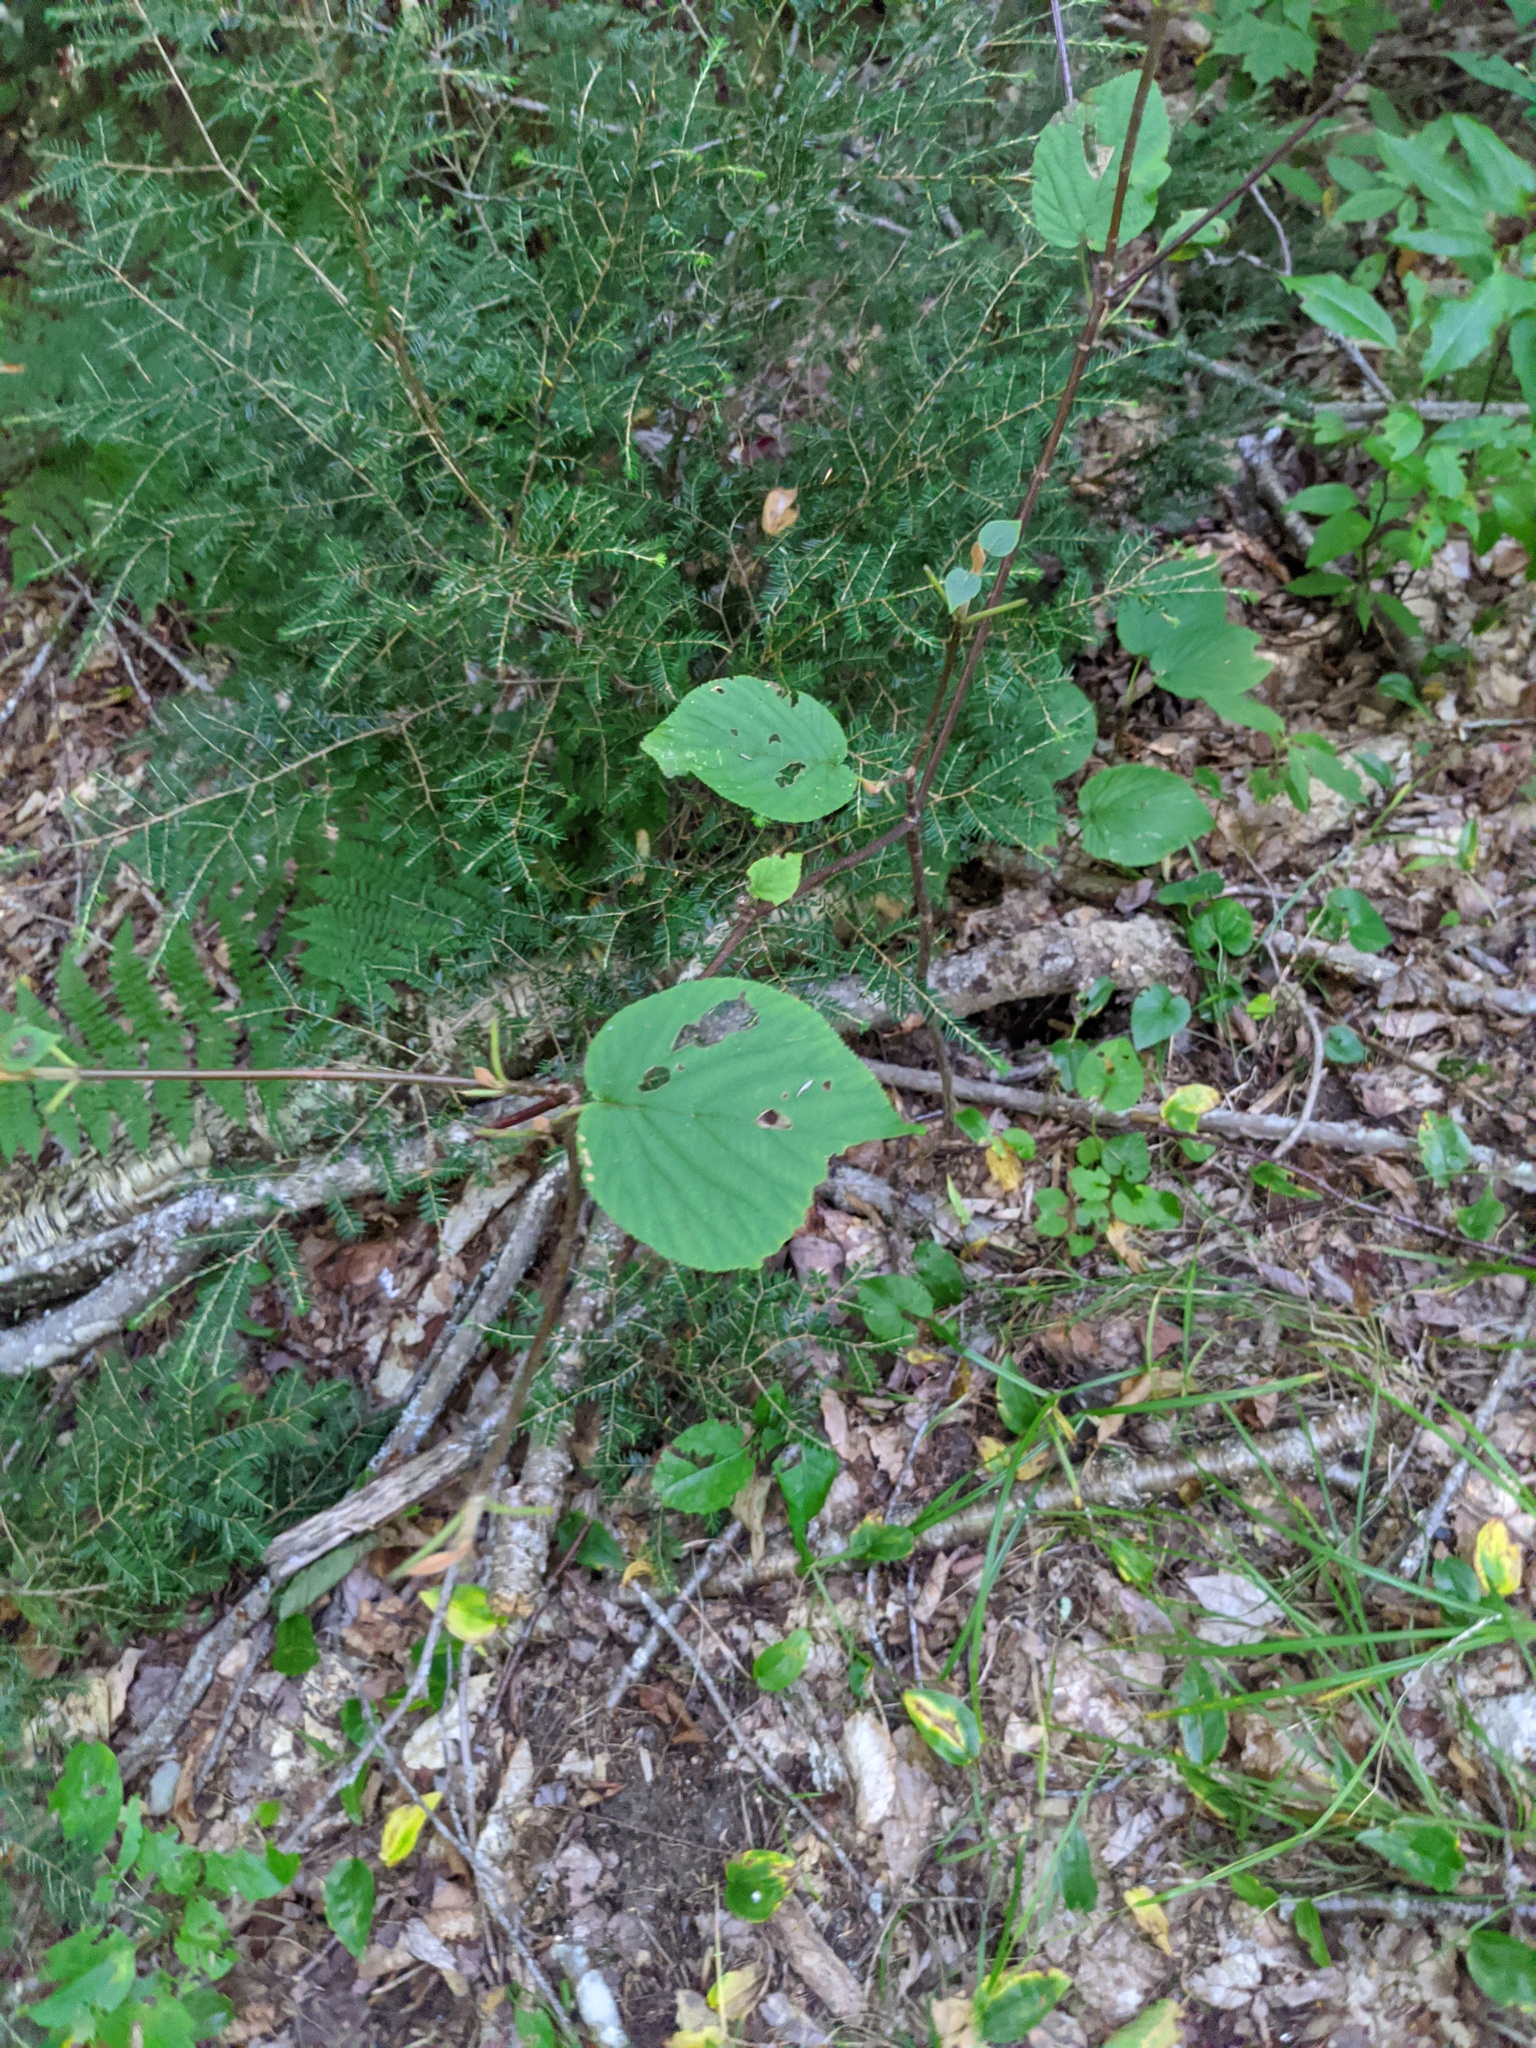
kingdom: Plantae
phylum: Tracheophyta
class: Magnoliopsida
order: Dipsacales
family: Viburnaceae
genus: Viburnum
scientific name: Viburnum lantanoides
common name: Hobblebush
